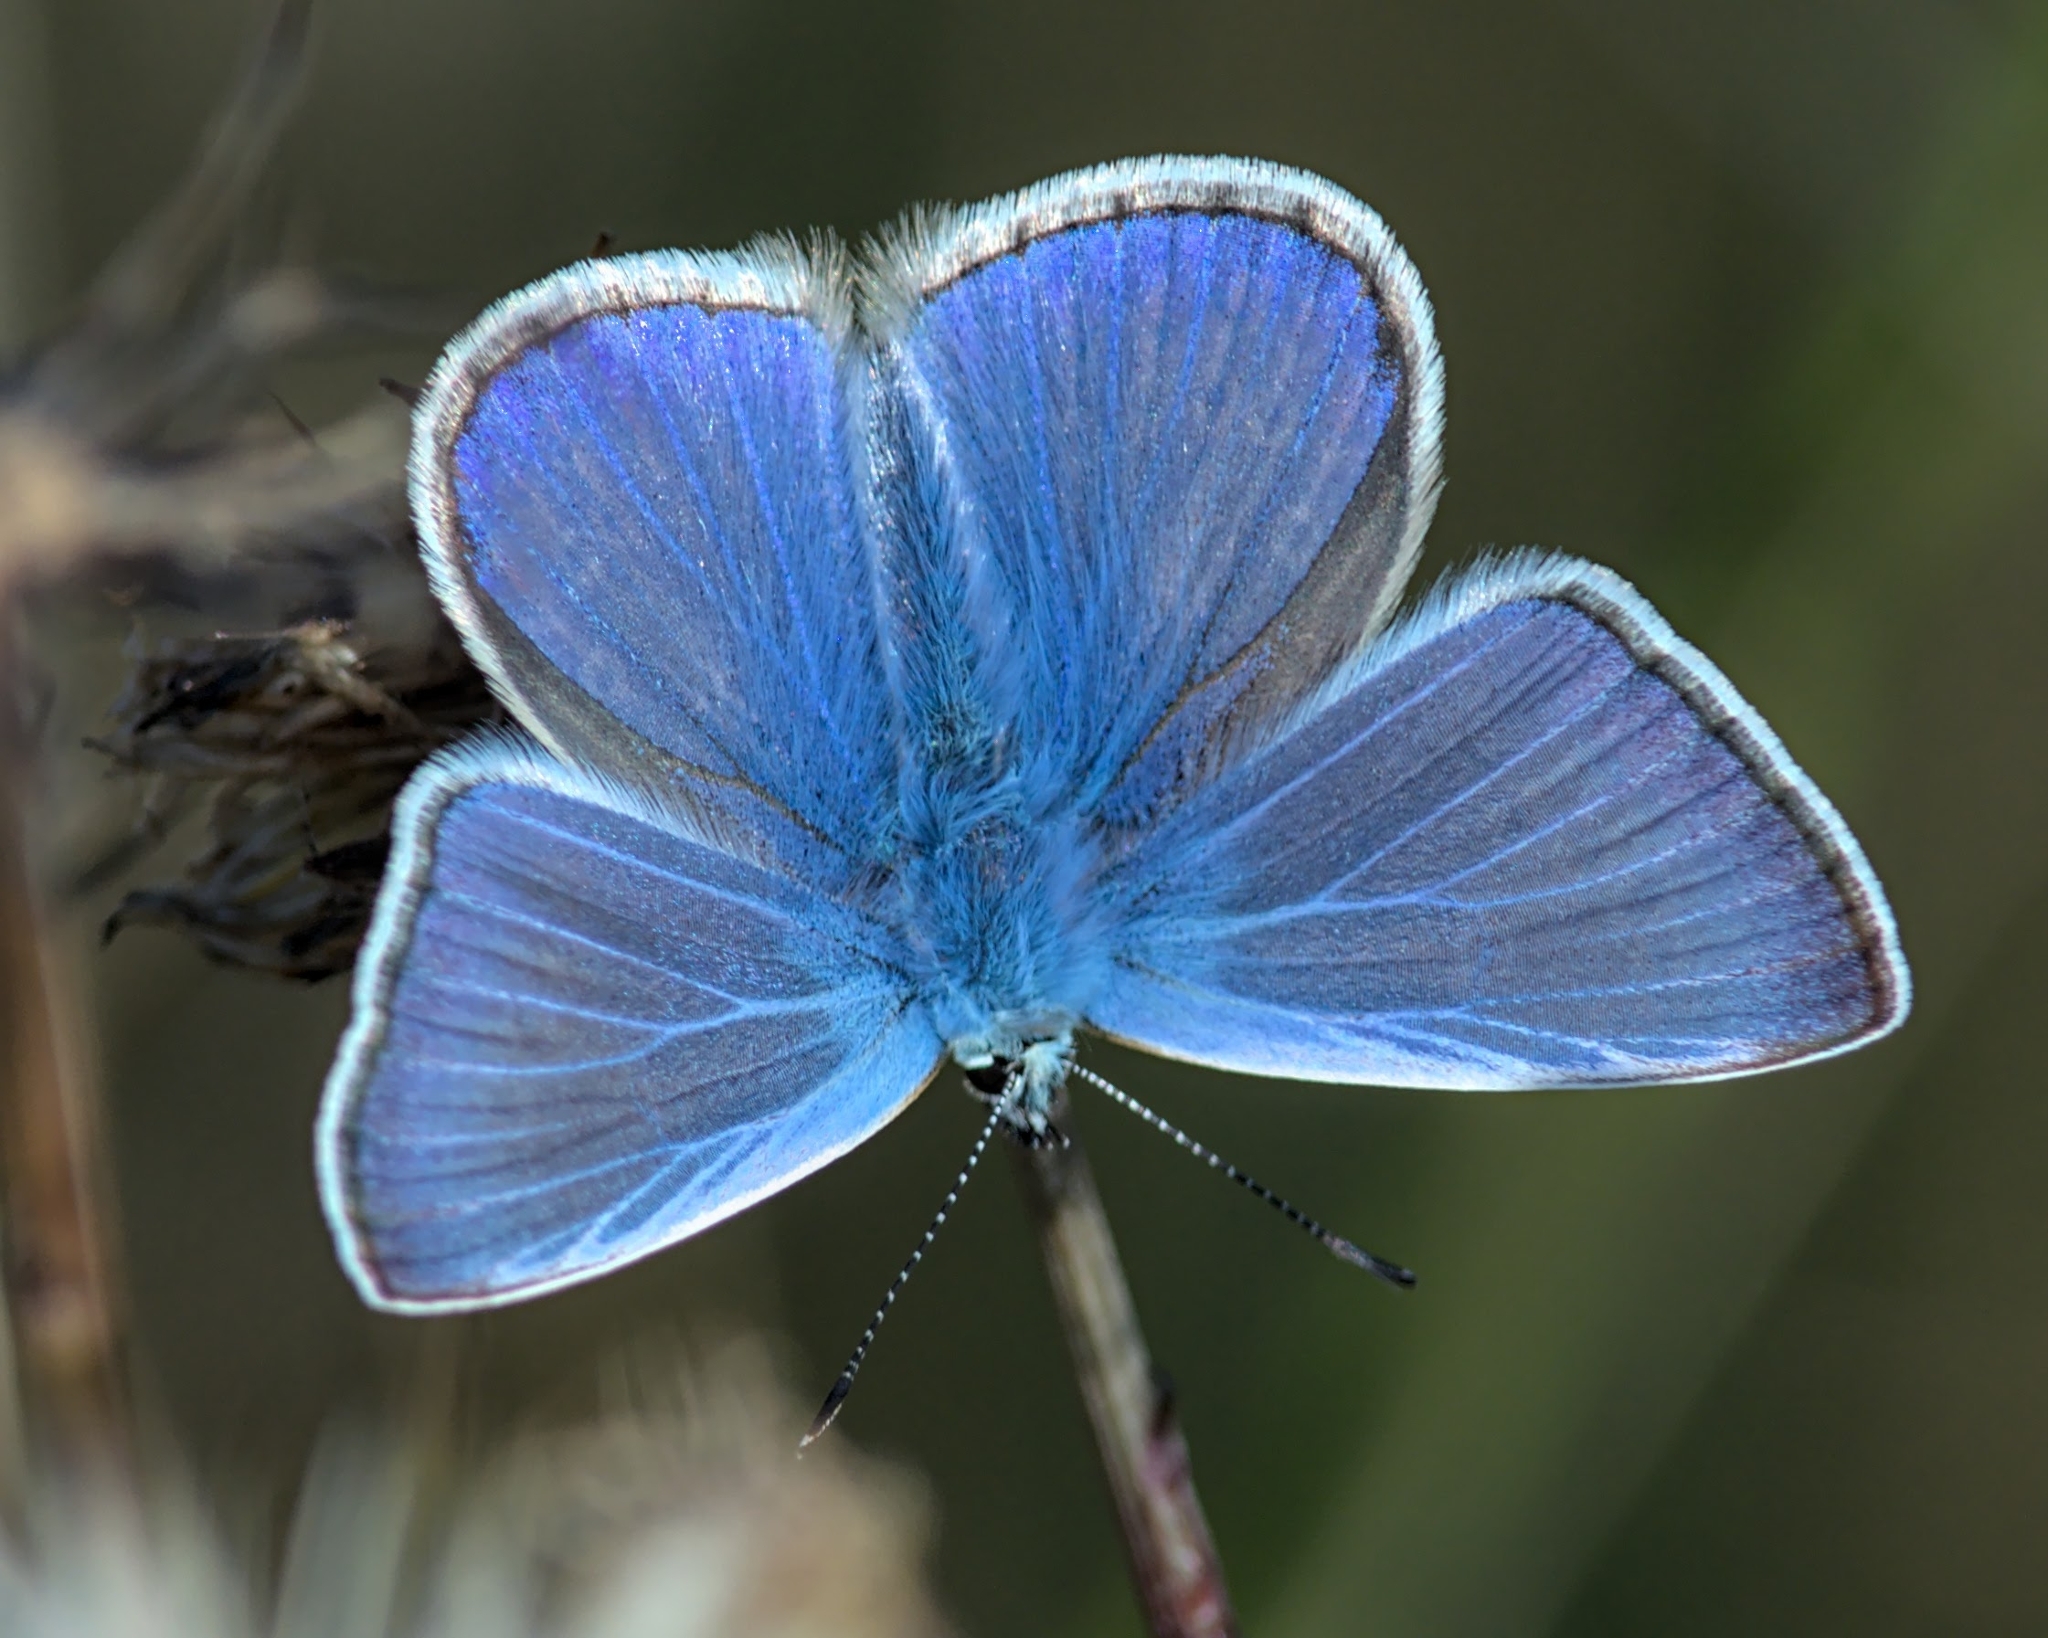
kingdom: Animalia
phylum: Arthropoda
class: Insecta
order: Lepidoptera
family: Lycaenidae
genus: Polyommatus
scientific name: Polyommatus icarus
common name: Common blue
